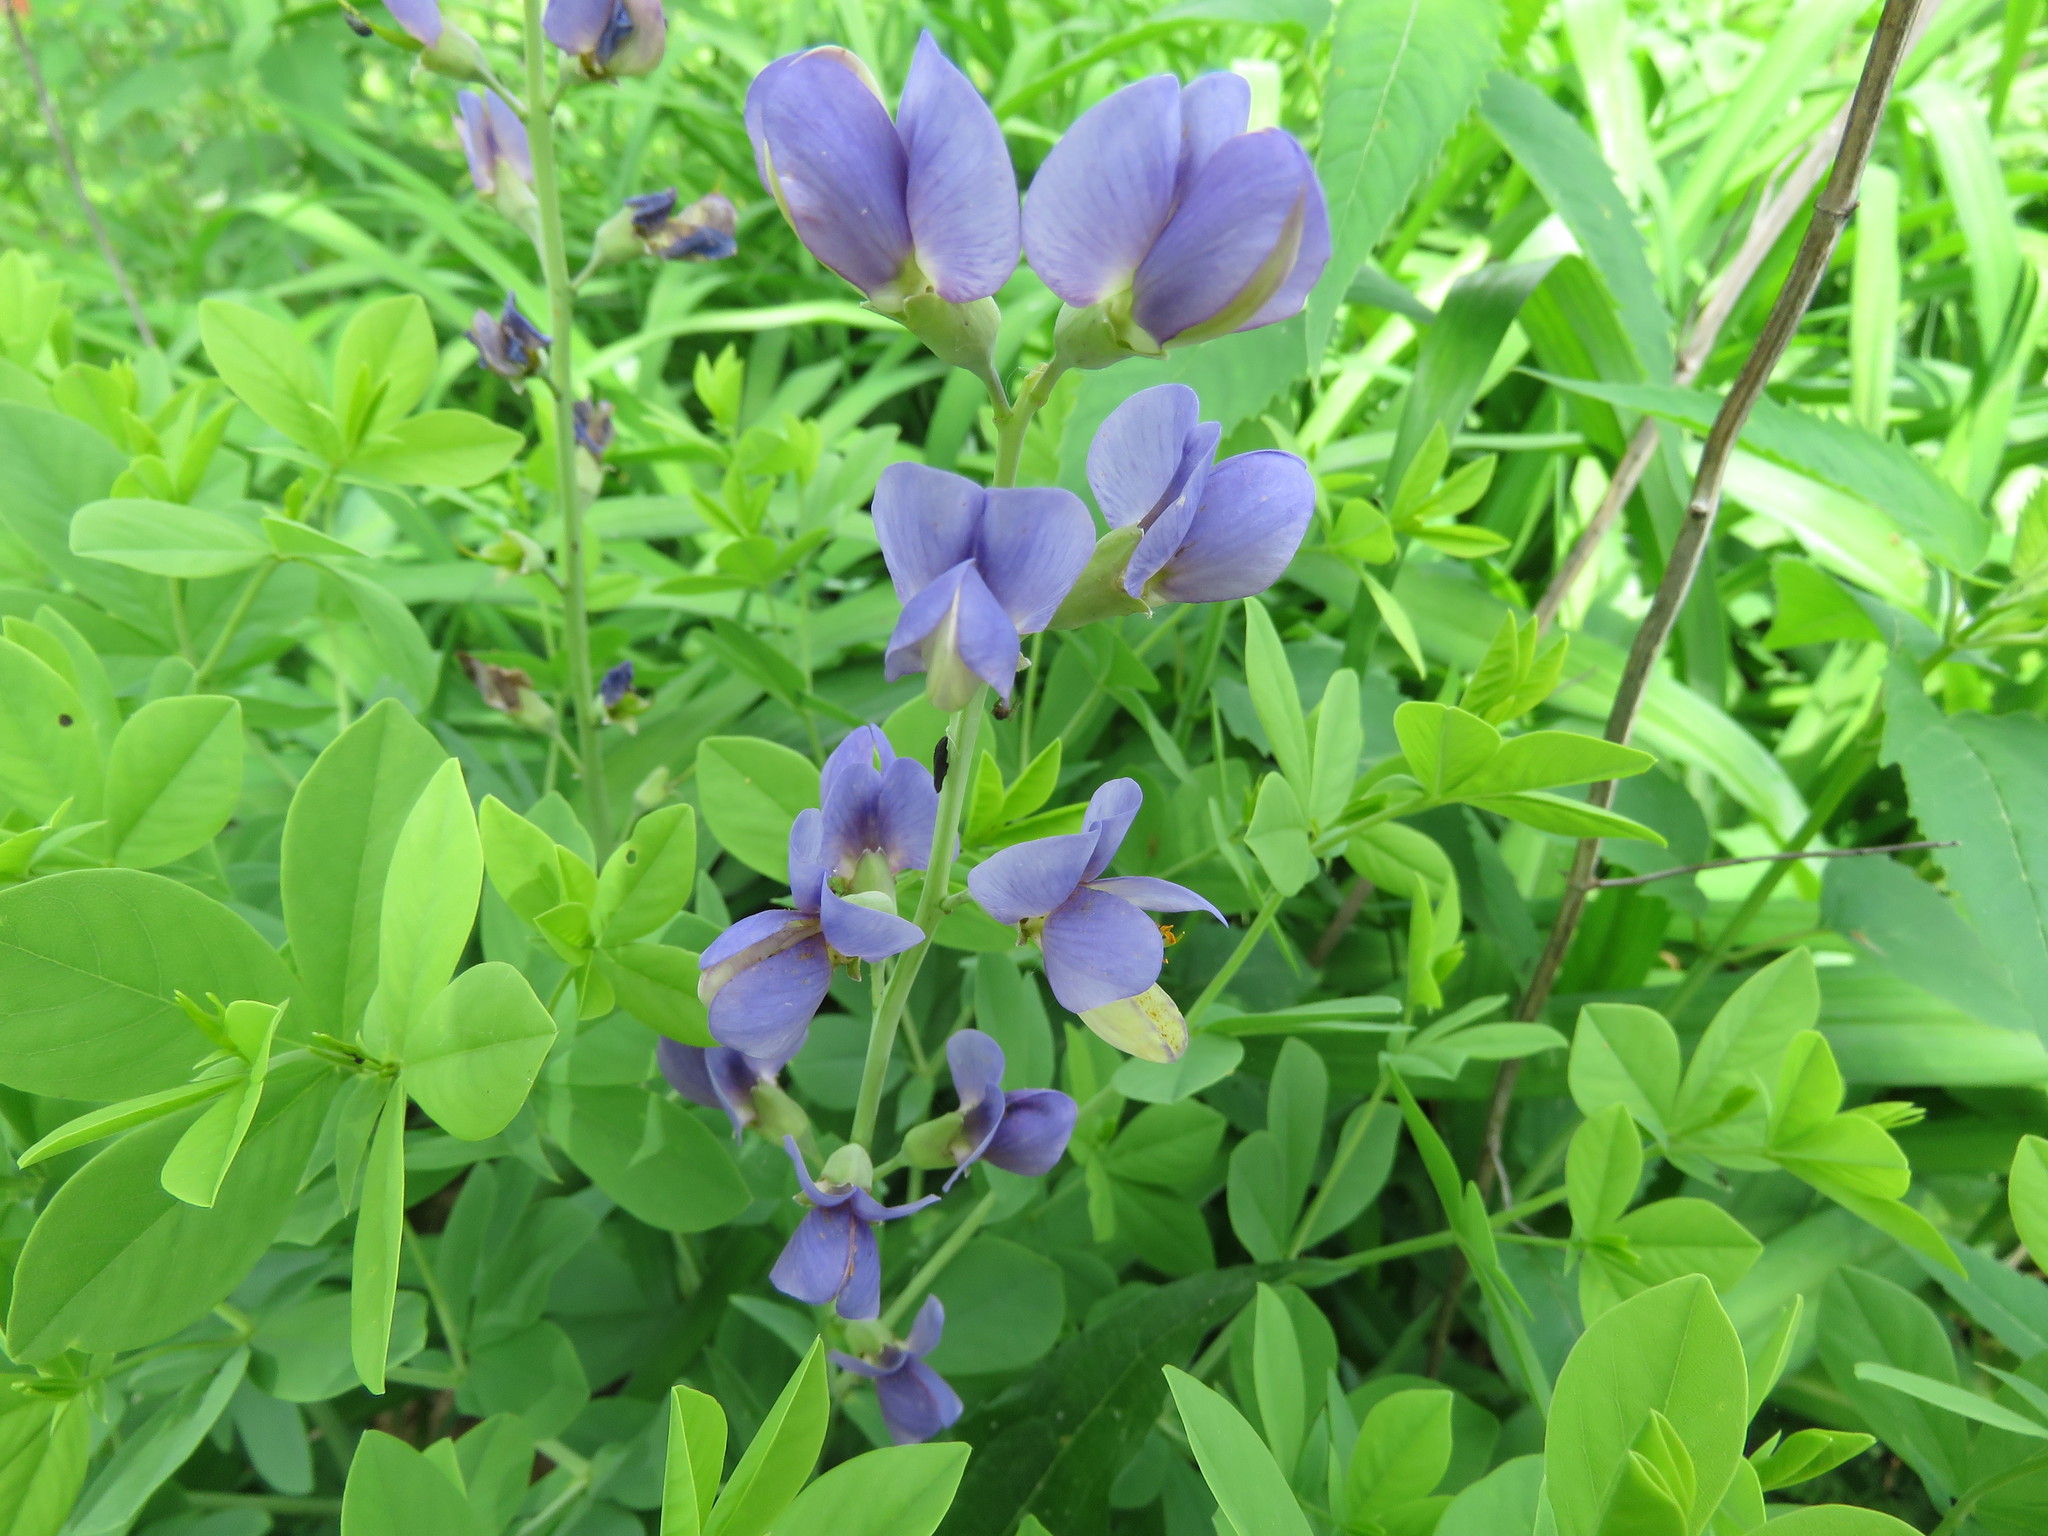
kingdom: Plantae
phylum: Tracheophyta
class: Magnoliopsida
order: Fabales
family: Fabaceae
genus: Baptisia
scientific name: Baptisia australis
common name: Blue false indigo
